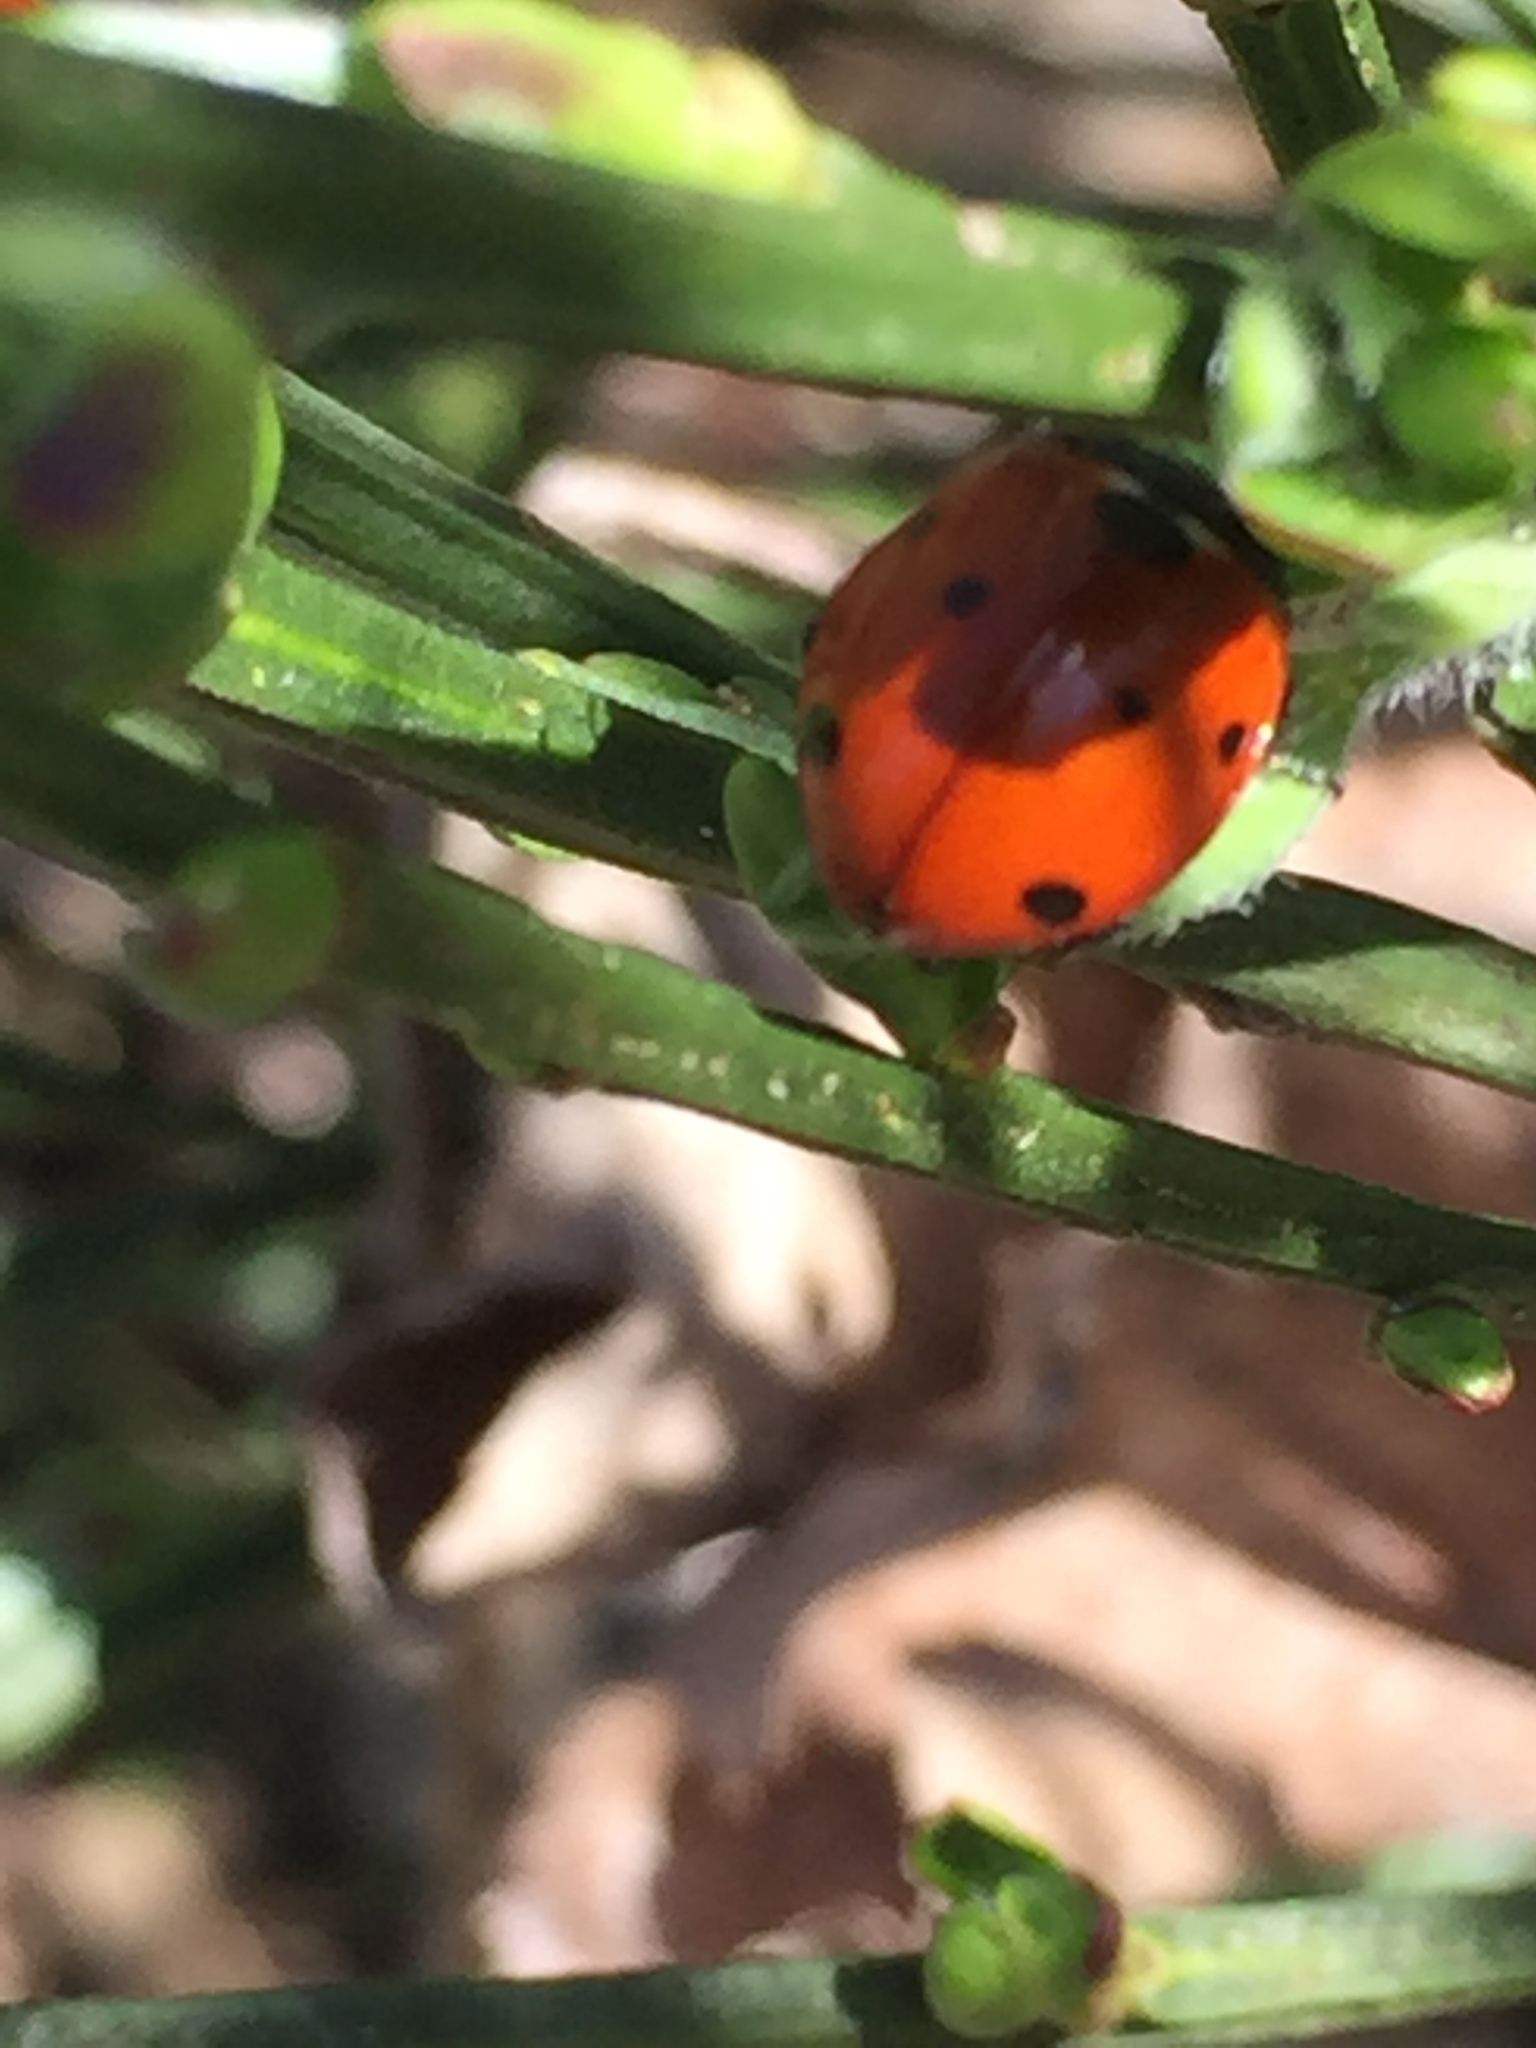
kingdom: Animalia
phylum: Arthropoda
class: Insecta
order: Coleoptera
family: Coccinellidae
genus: Coccinella
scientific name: Coccinella septempunctata
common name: Sevenspotted lady beetle
